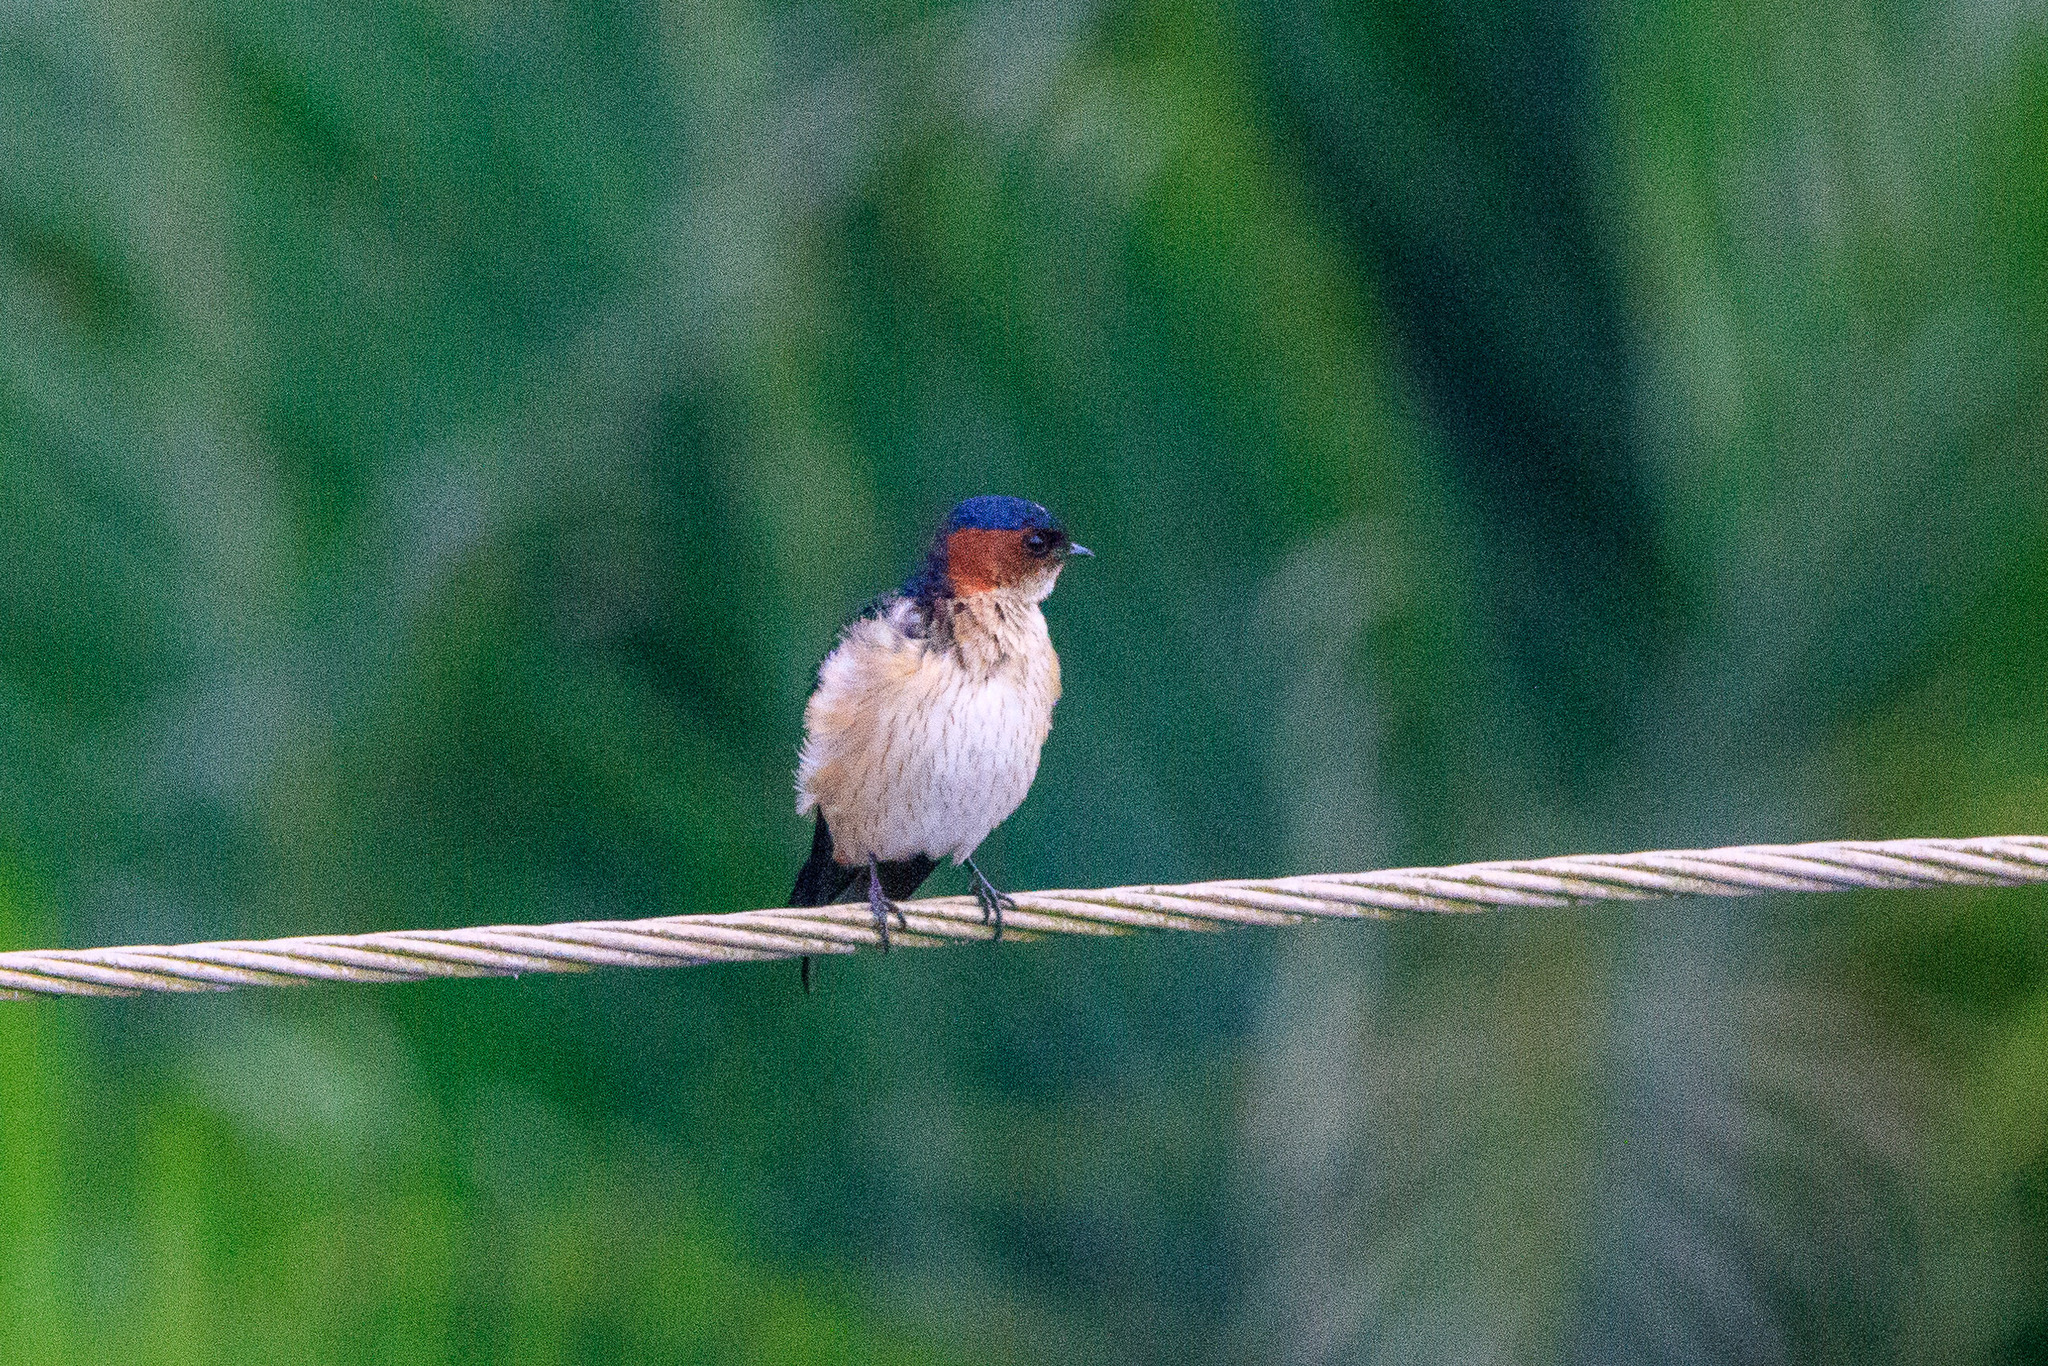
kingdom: Animalia
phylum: Chordata
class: Aves
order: Passeriformes
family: Hirundinidae
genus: Hirundo
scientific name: Hirundo rustica
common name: Barn swallow
